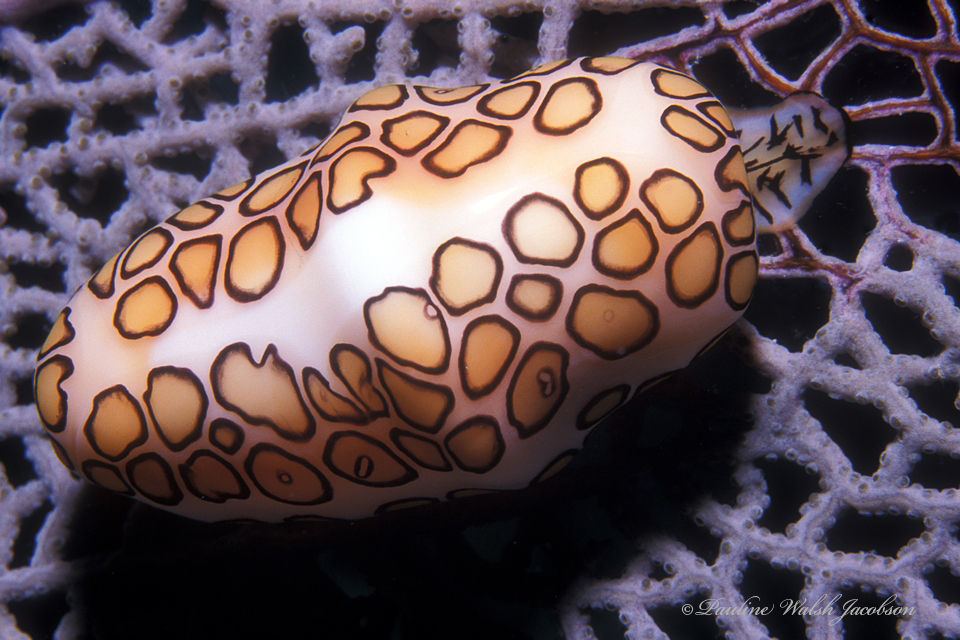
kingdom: Animalia
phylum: Mollusca
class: Gastropoda
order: Littorinimorpha
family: Ovulidae
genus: Cyphoma
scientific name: Cyphoma gibbosum
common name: Flamingo tongue
